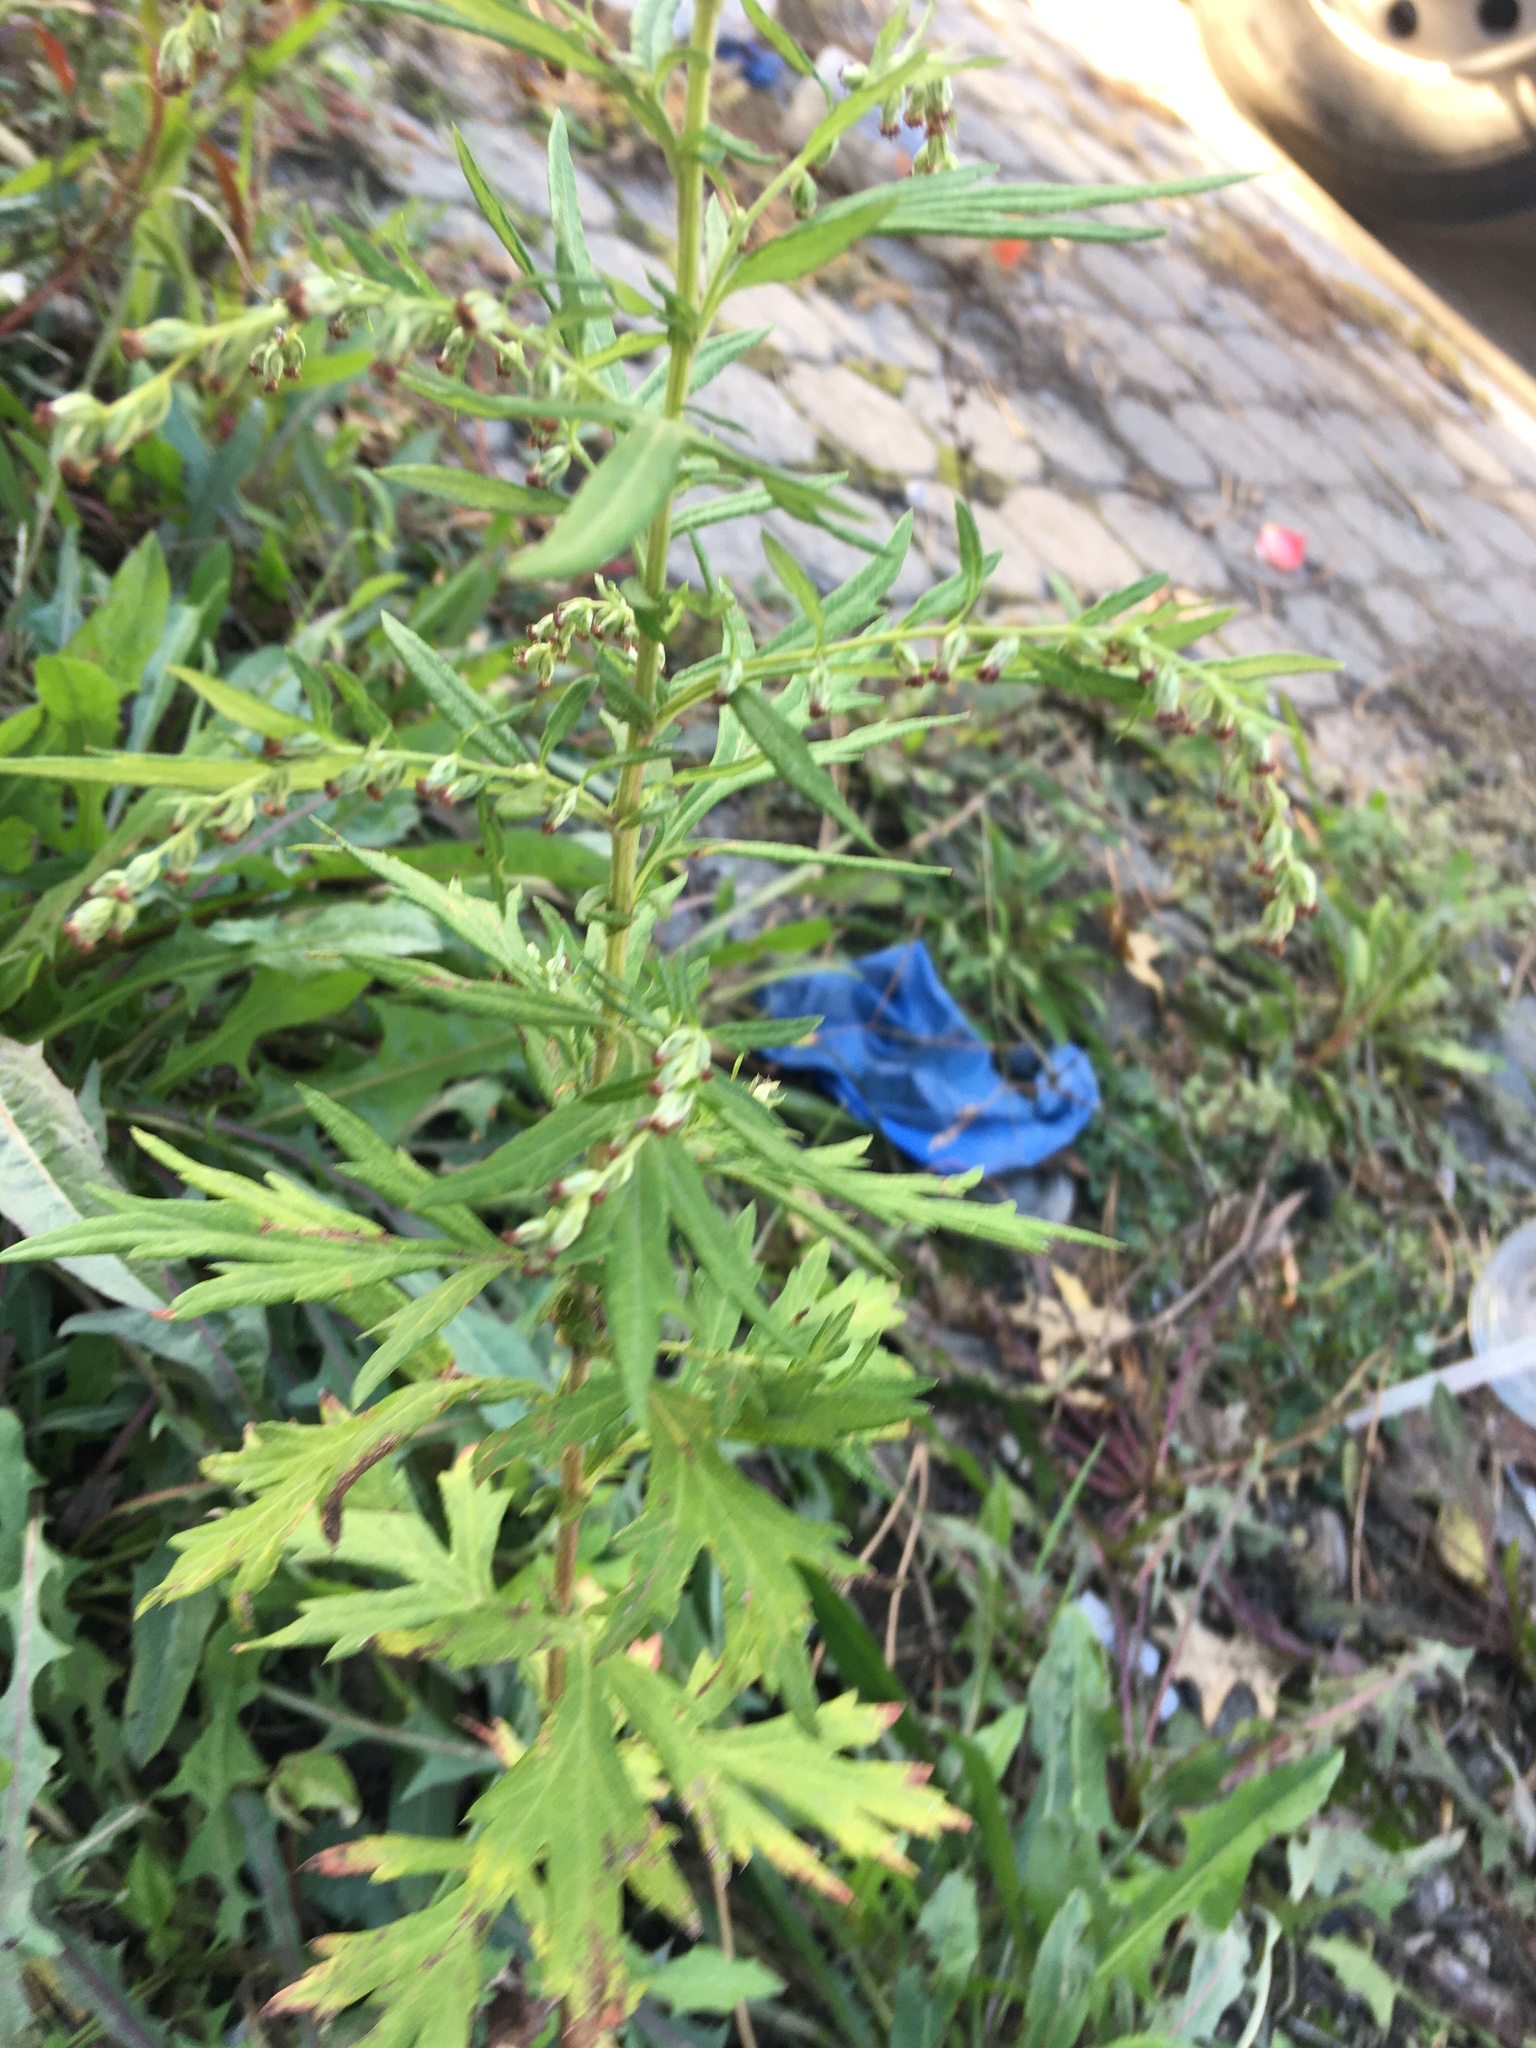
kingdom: Plantae
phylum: Tracheophyta
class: Magnoliopsida
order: Asterales
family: Asteraceae
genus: Artemisia
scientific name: Artemisia vulgaris
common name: Mugwort
